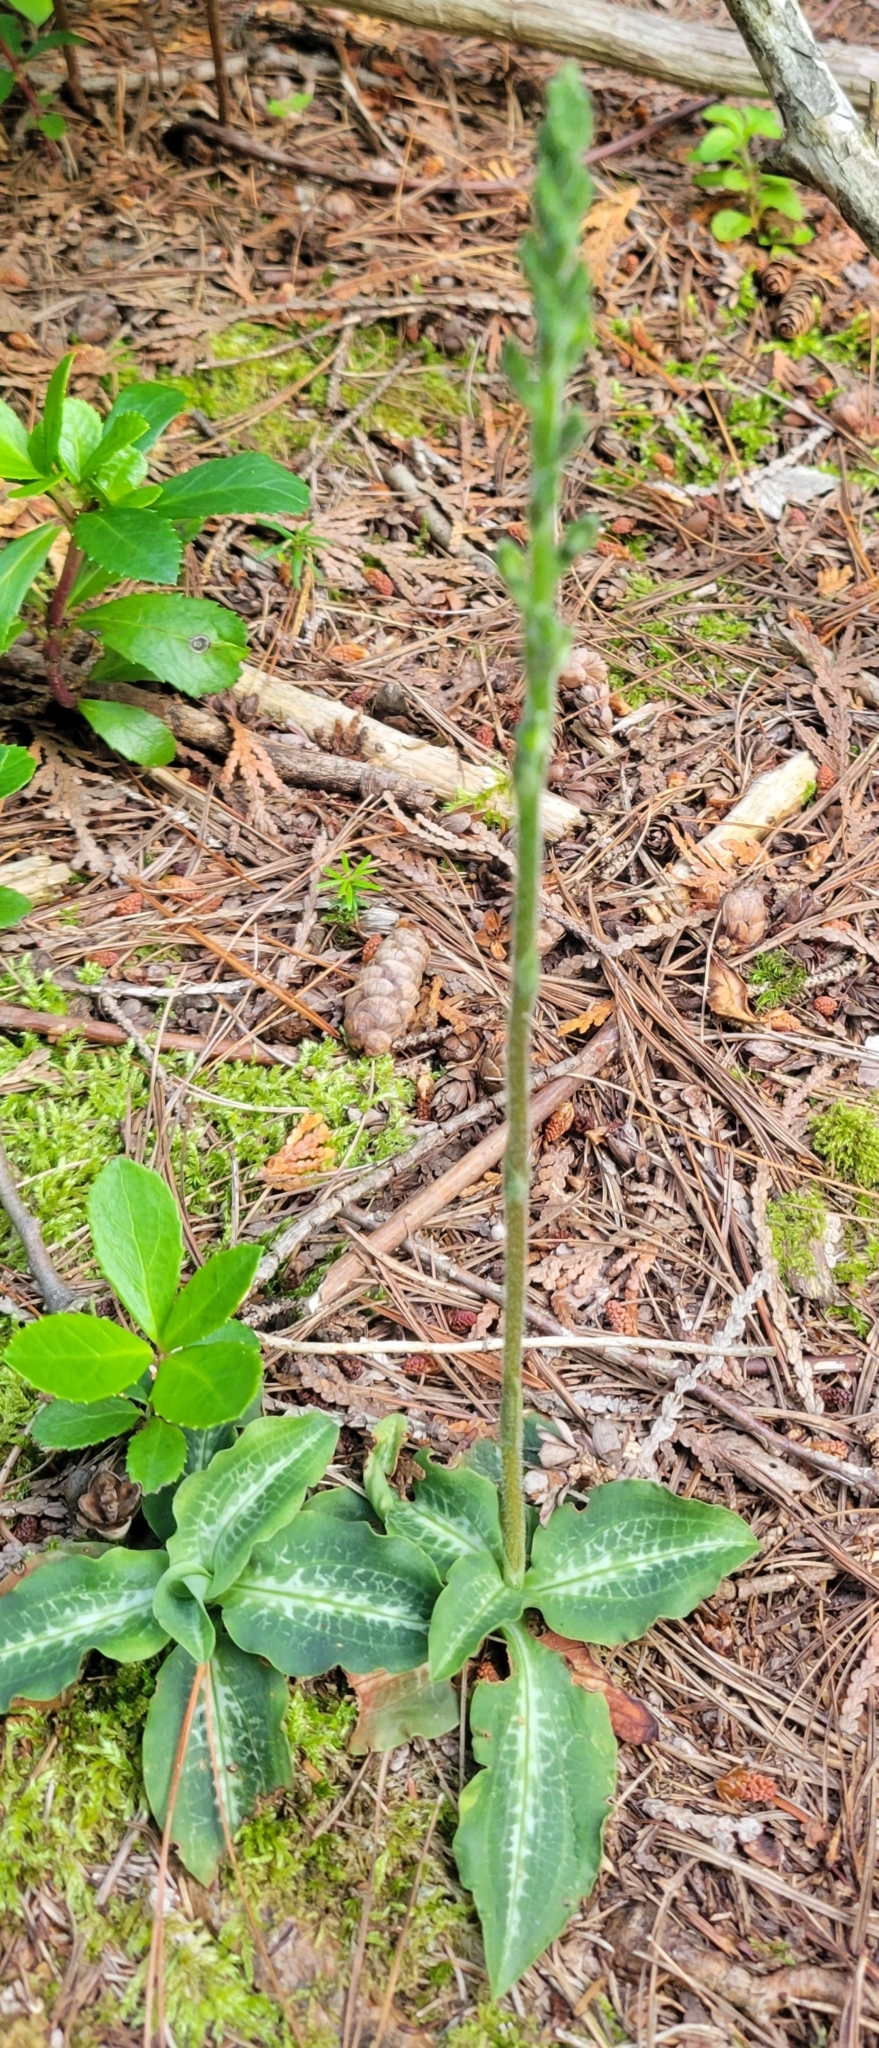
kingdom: Plantae
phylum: Tracheophyta
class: Liliopsida
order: Asparagales
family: Orchidaceae
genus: Goodyera
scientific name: Goodyera oblongifolia
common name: Giant rattlesnake-plantain
